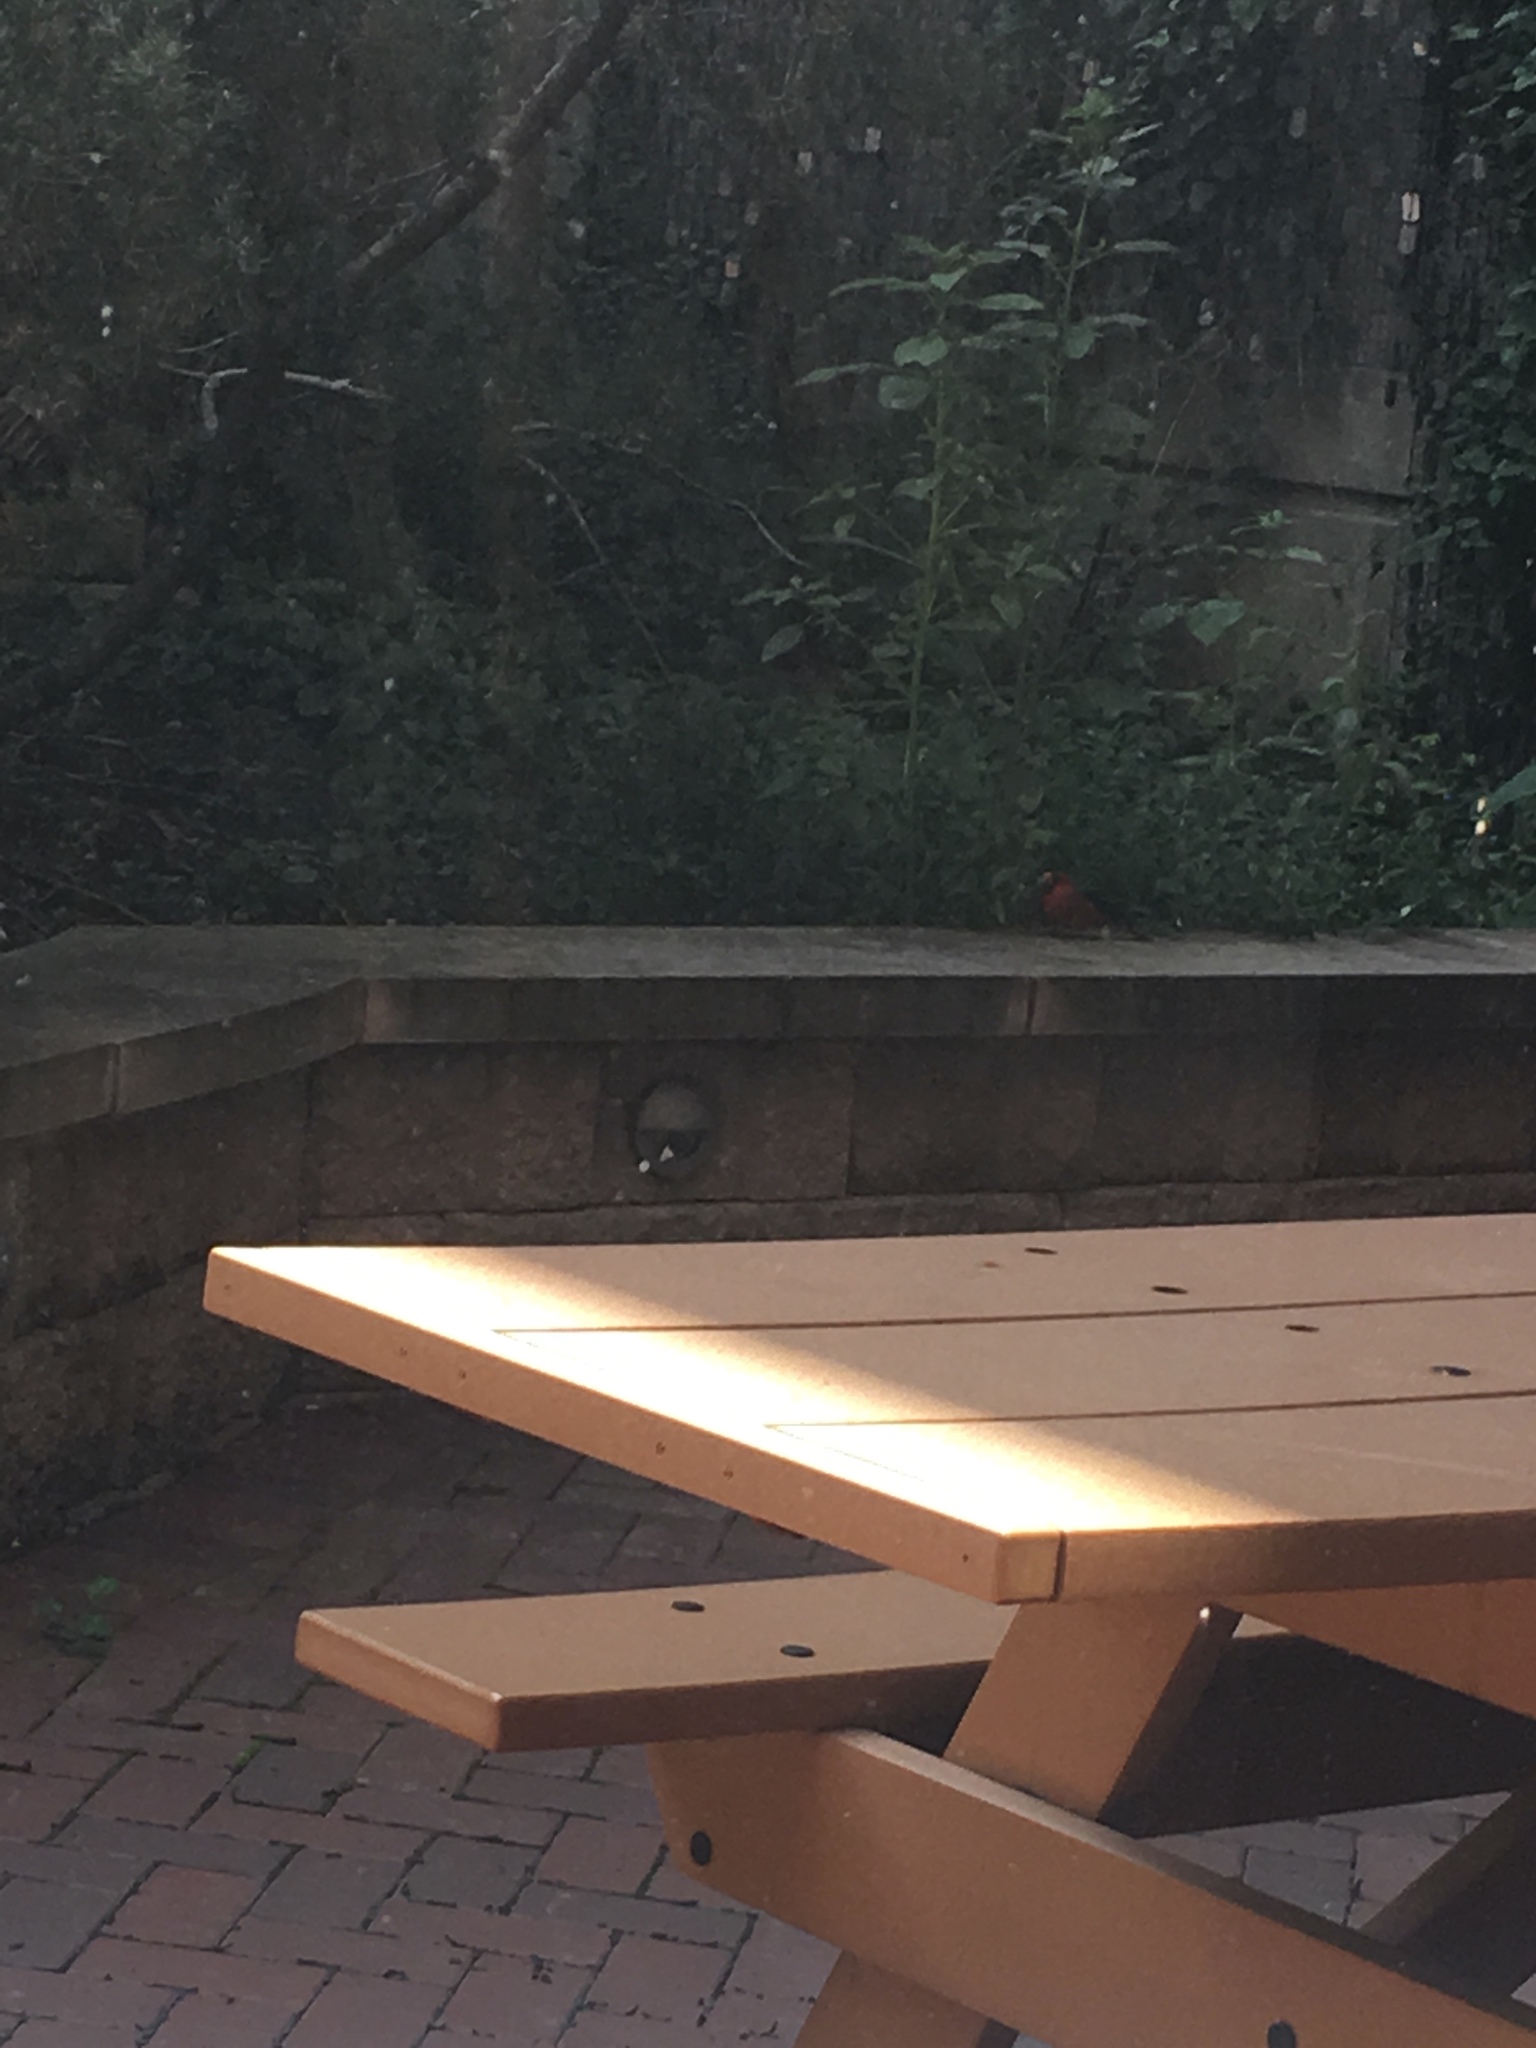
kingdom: Animalia
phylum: Chordata
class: Aves
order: Passeriformes
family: Cardinalidae
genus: Cardinalis
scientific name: Cardinalis cardinalis
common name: Northern cardinal
